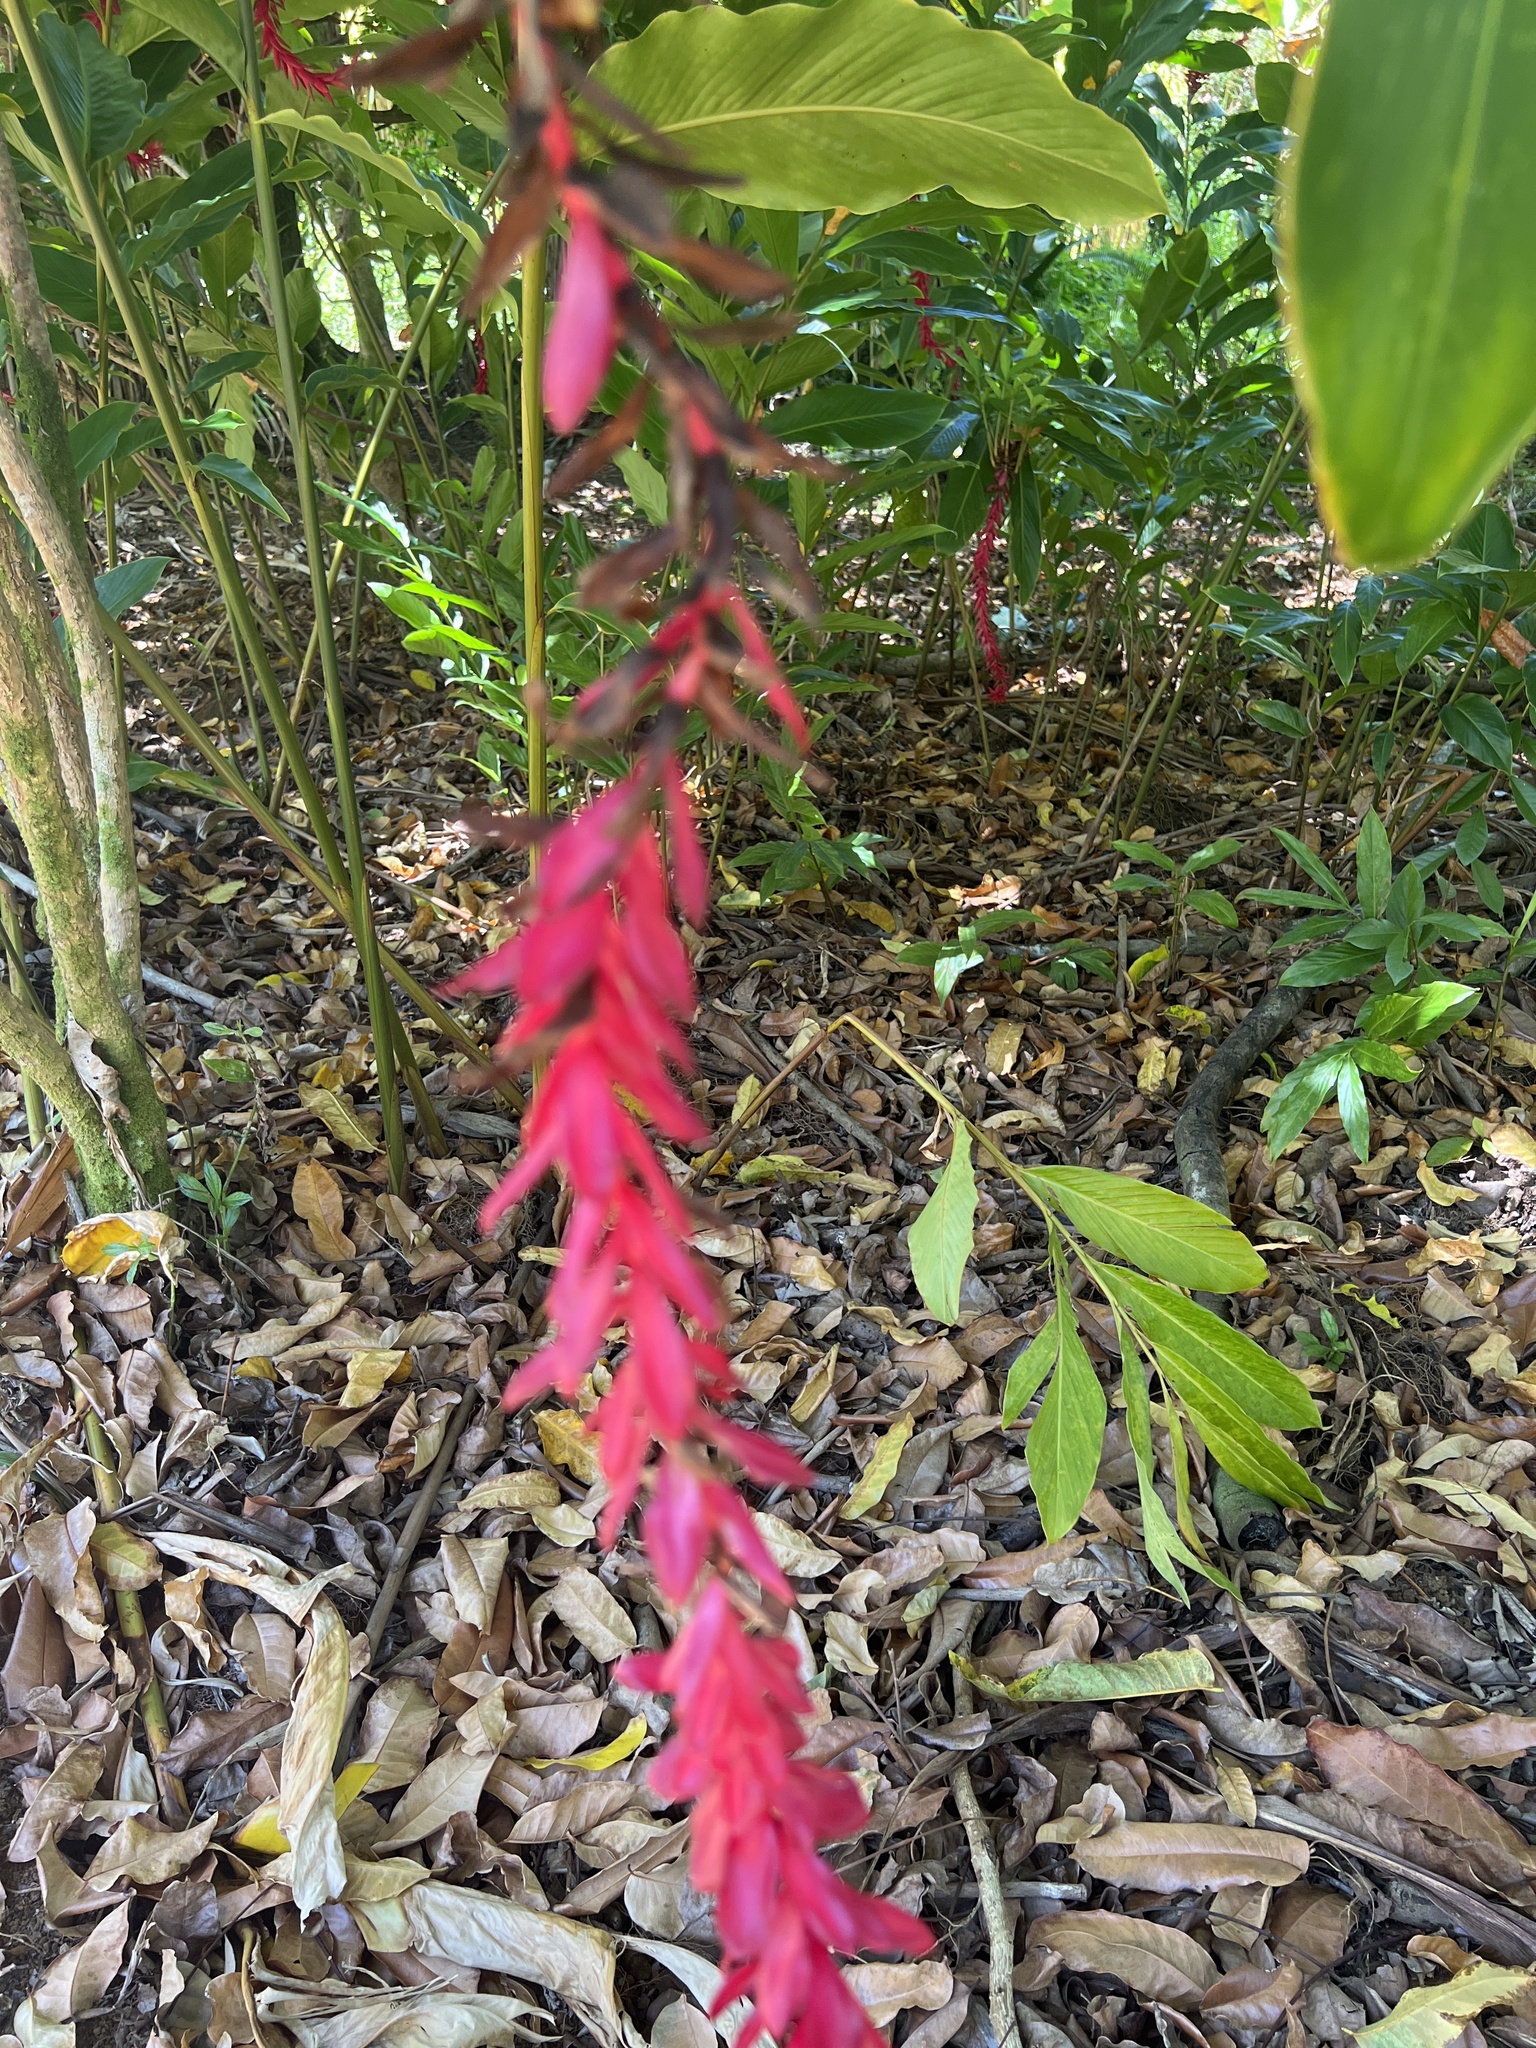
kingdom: Plantae
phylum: Tracheophyta
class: Liliopsida
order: Zingiberales
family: Zingiberaceae
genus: Alpinia
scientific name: Alpinia purpurata
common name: Red ginger
